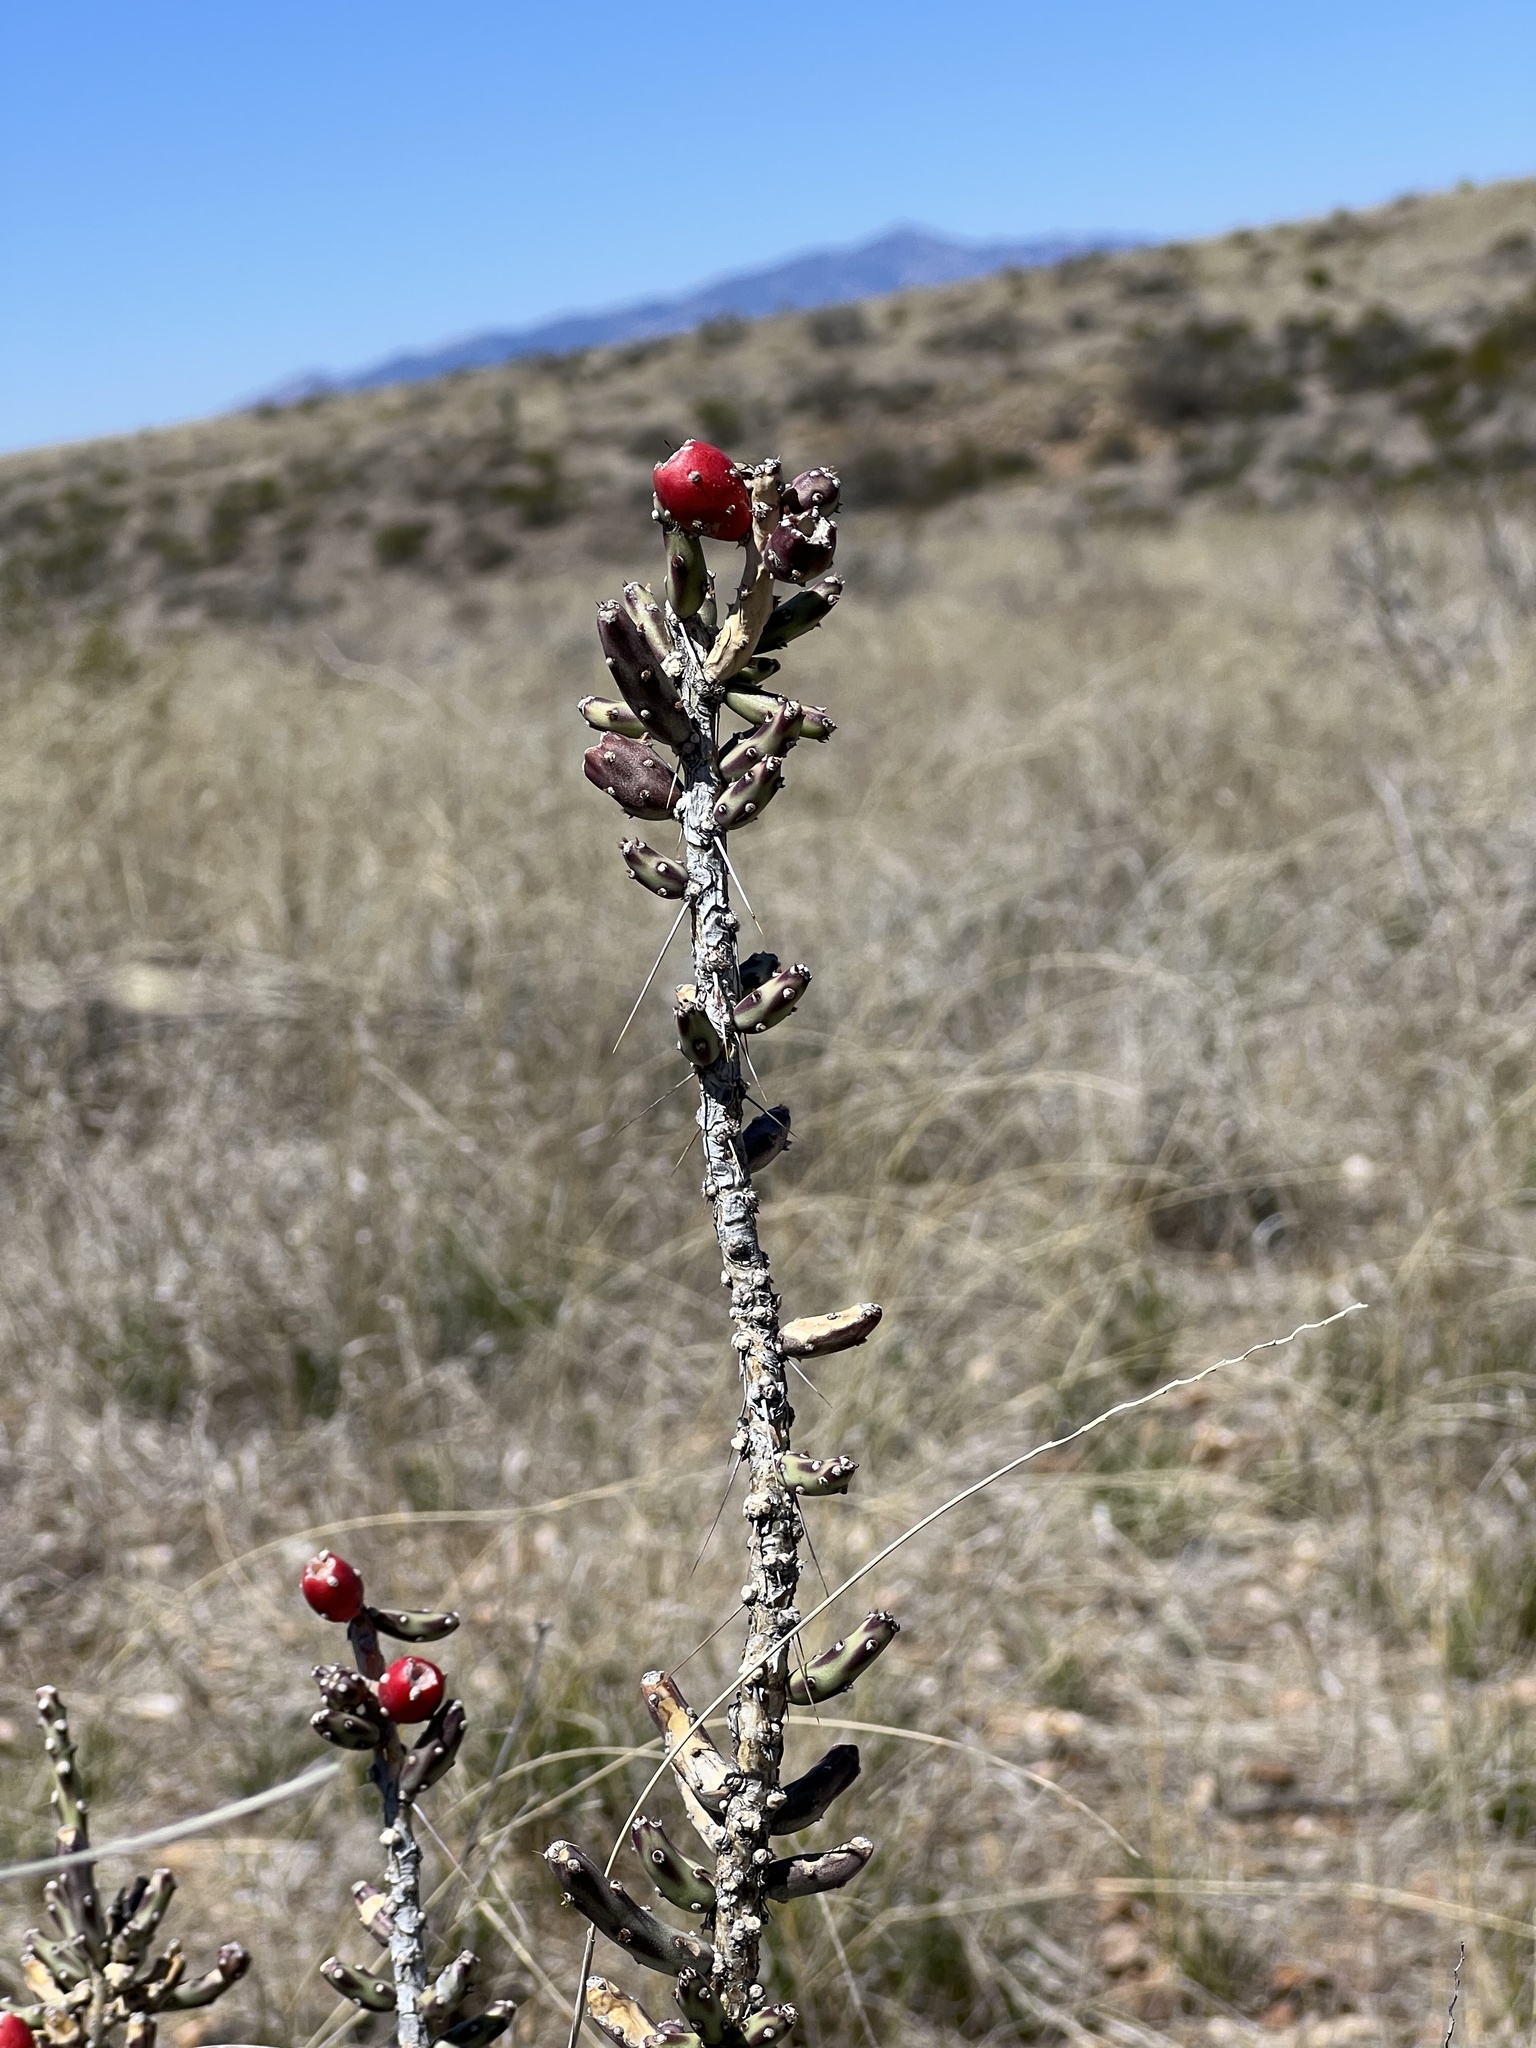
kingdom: Plantae
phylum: Tracheophyta
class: Magnoliopsida
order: Caryophyllales
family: Cactaceae
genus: Cylindropuntia
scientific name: Cylindropuntia leptocaulis
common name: Christmas cactus
